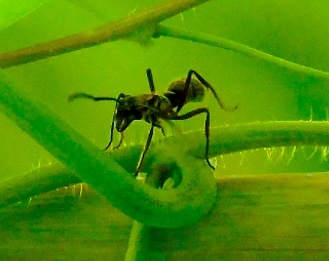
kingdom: Animalia
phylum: Arthropoda
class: Insecta
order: Hymenoptera
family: Formicidae
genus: Pachycondyla
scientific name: Pachycondyla villosa
